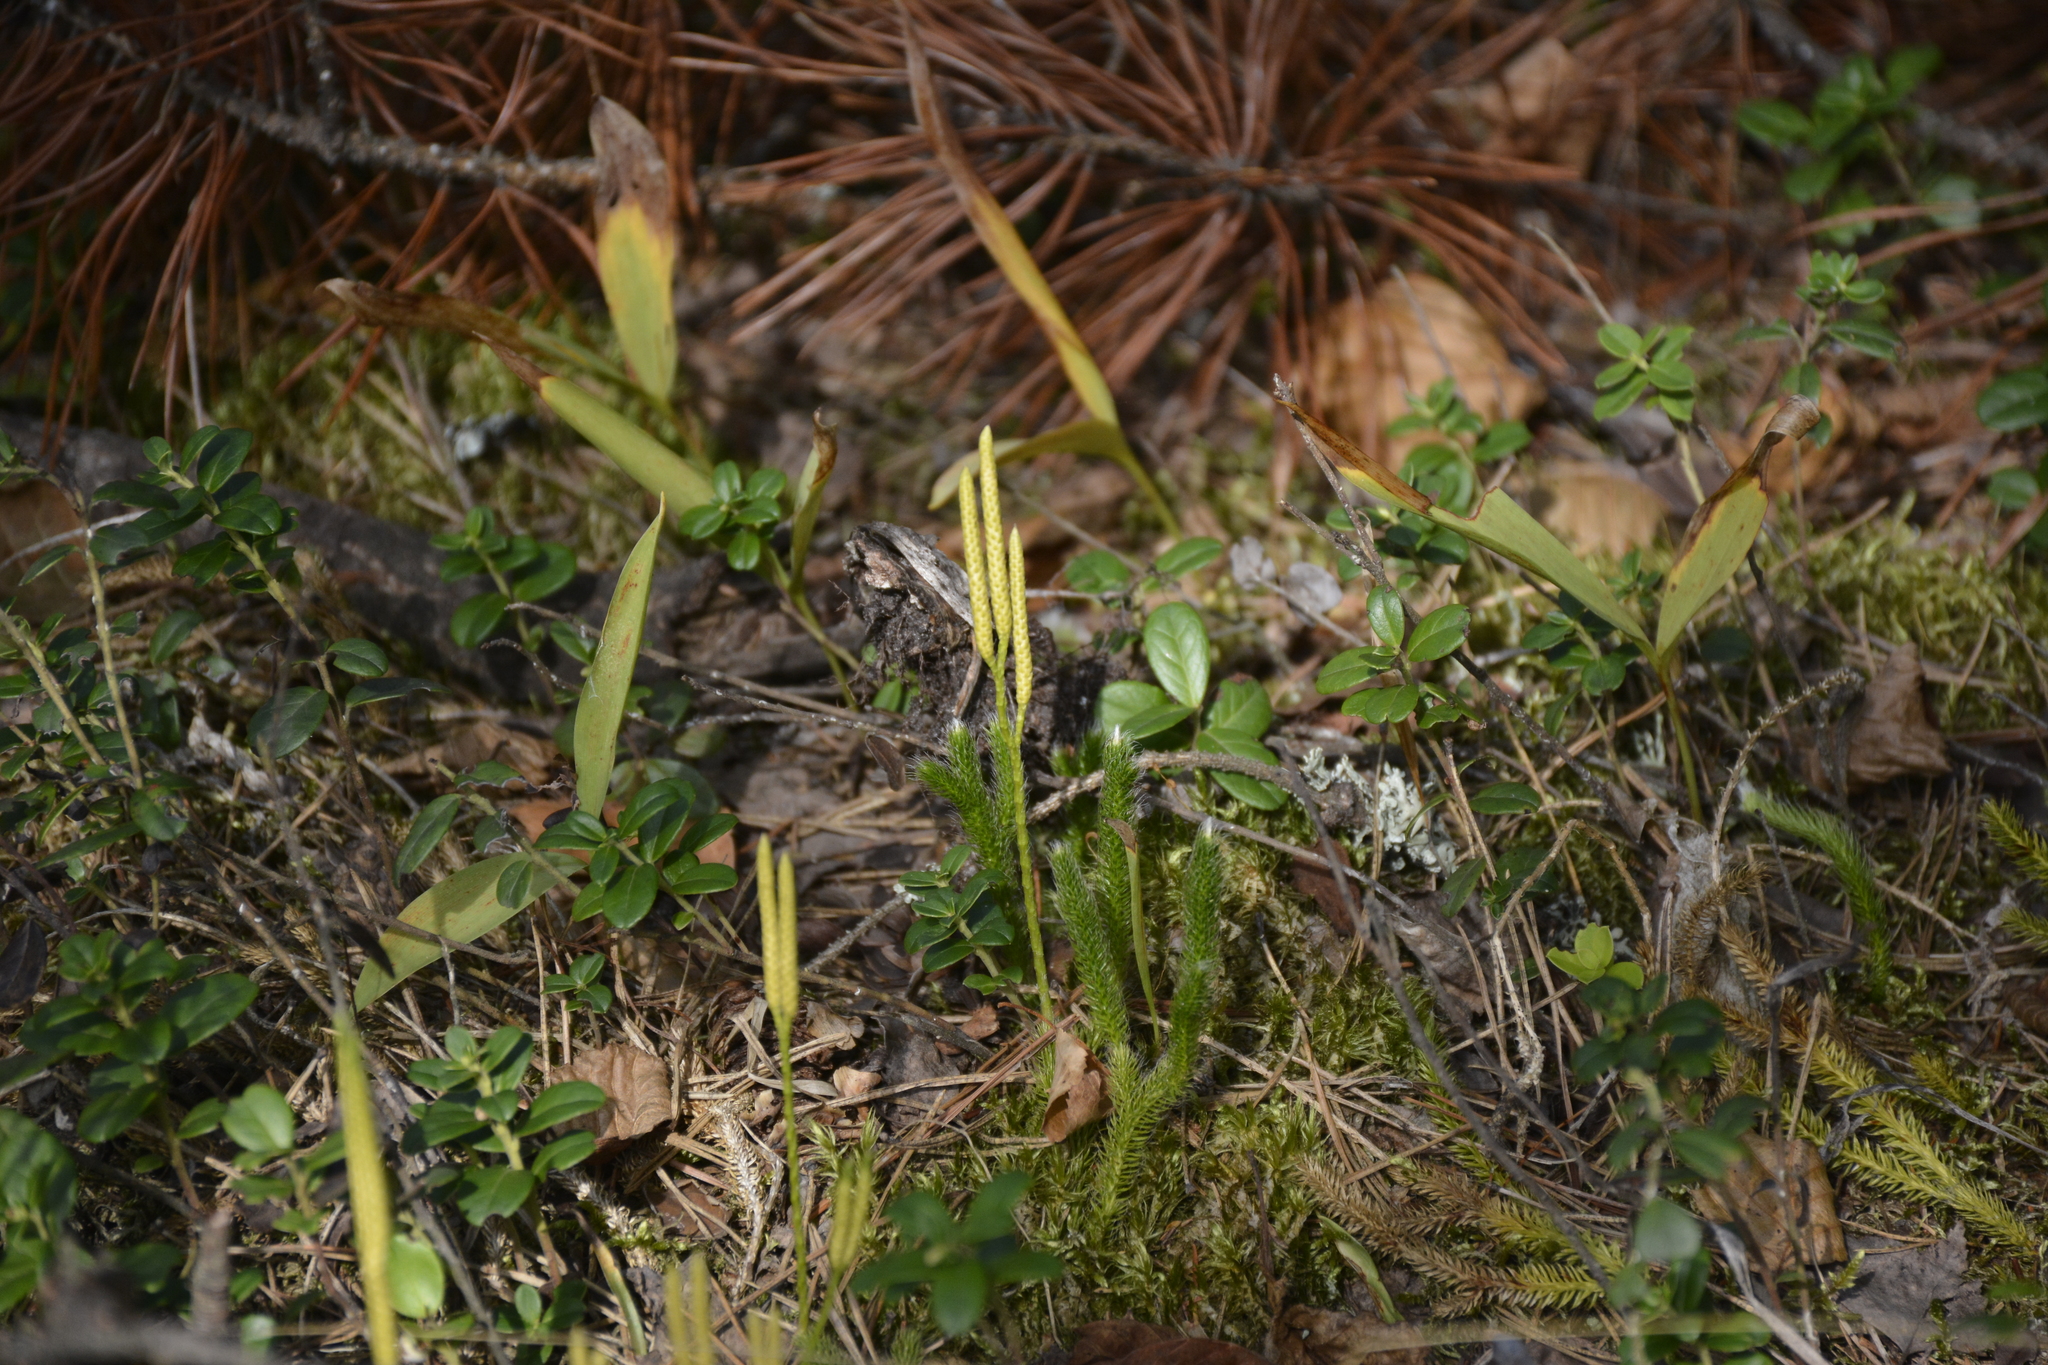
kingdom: Plantae
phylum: Tracheophyta
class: Lycopodiopsida
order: Lycopodiales
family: Lycopodiaceae
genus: Lycopodium
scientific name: Lycopodium clavatum
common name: Stag's-horn clubmoss
